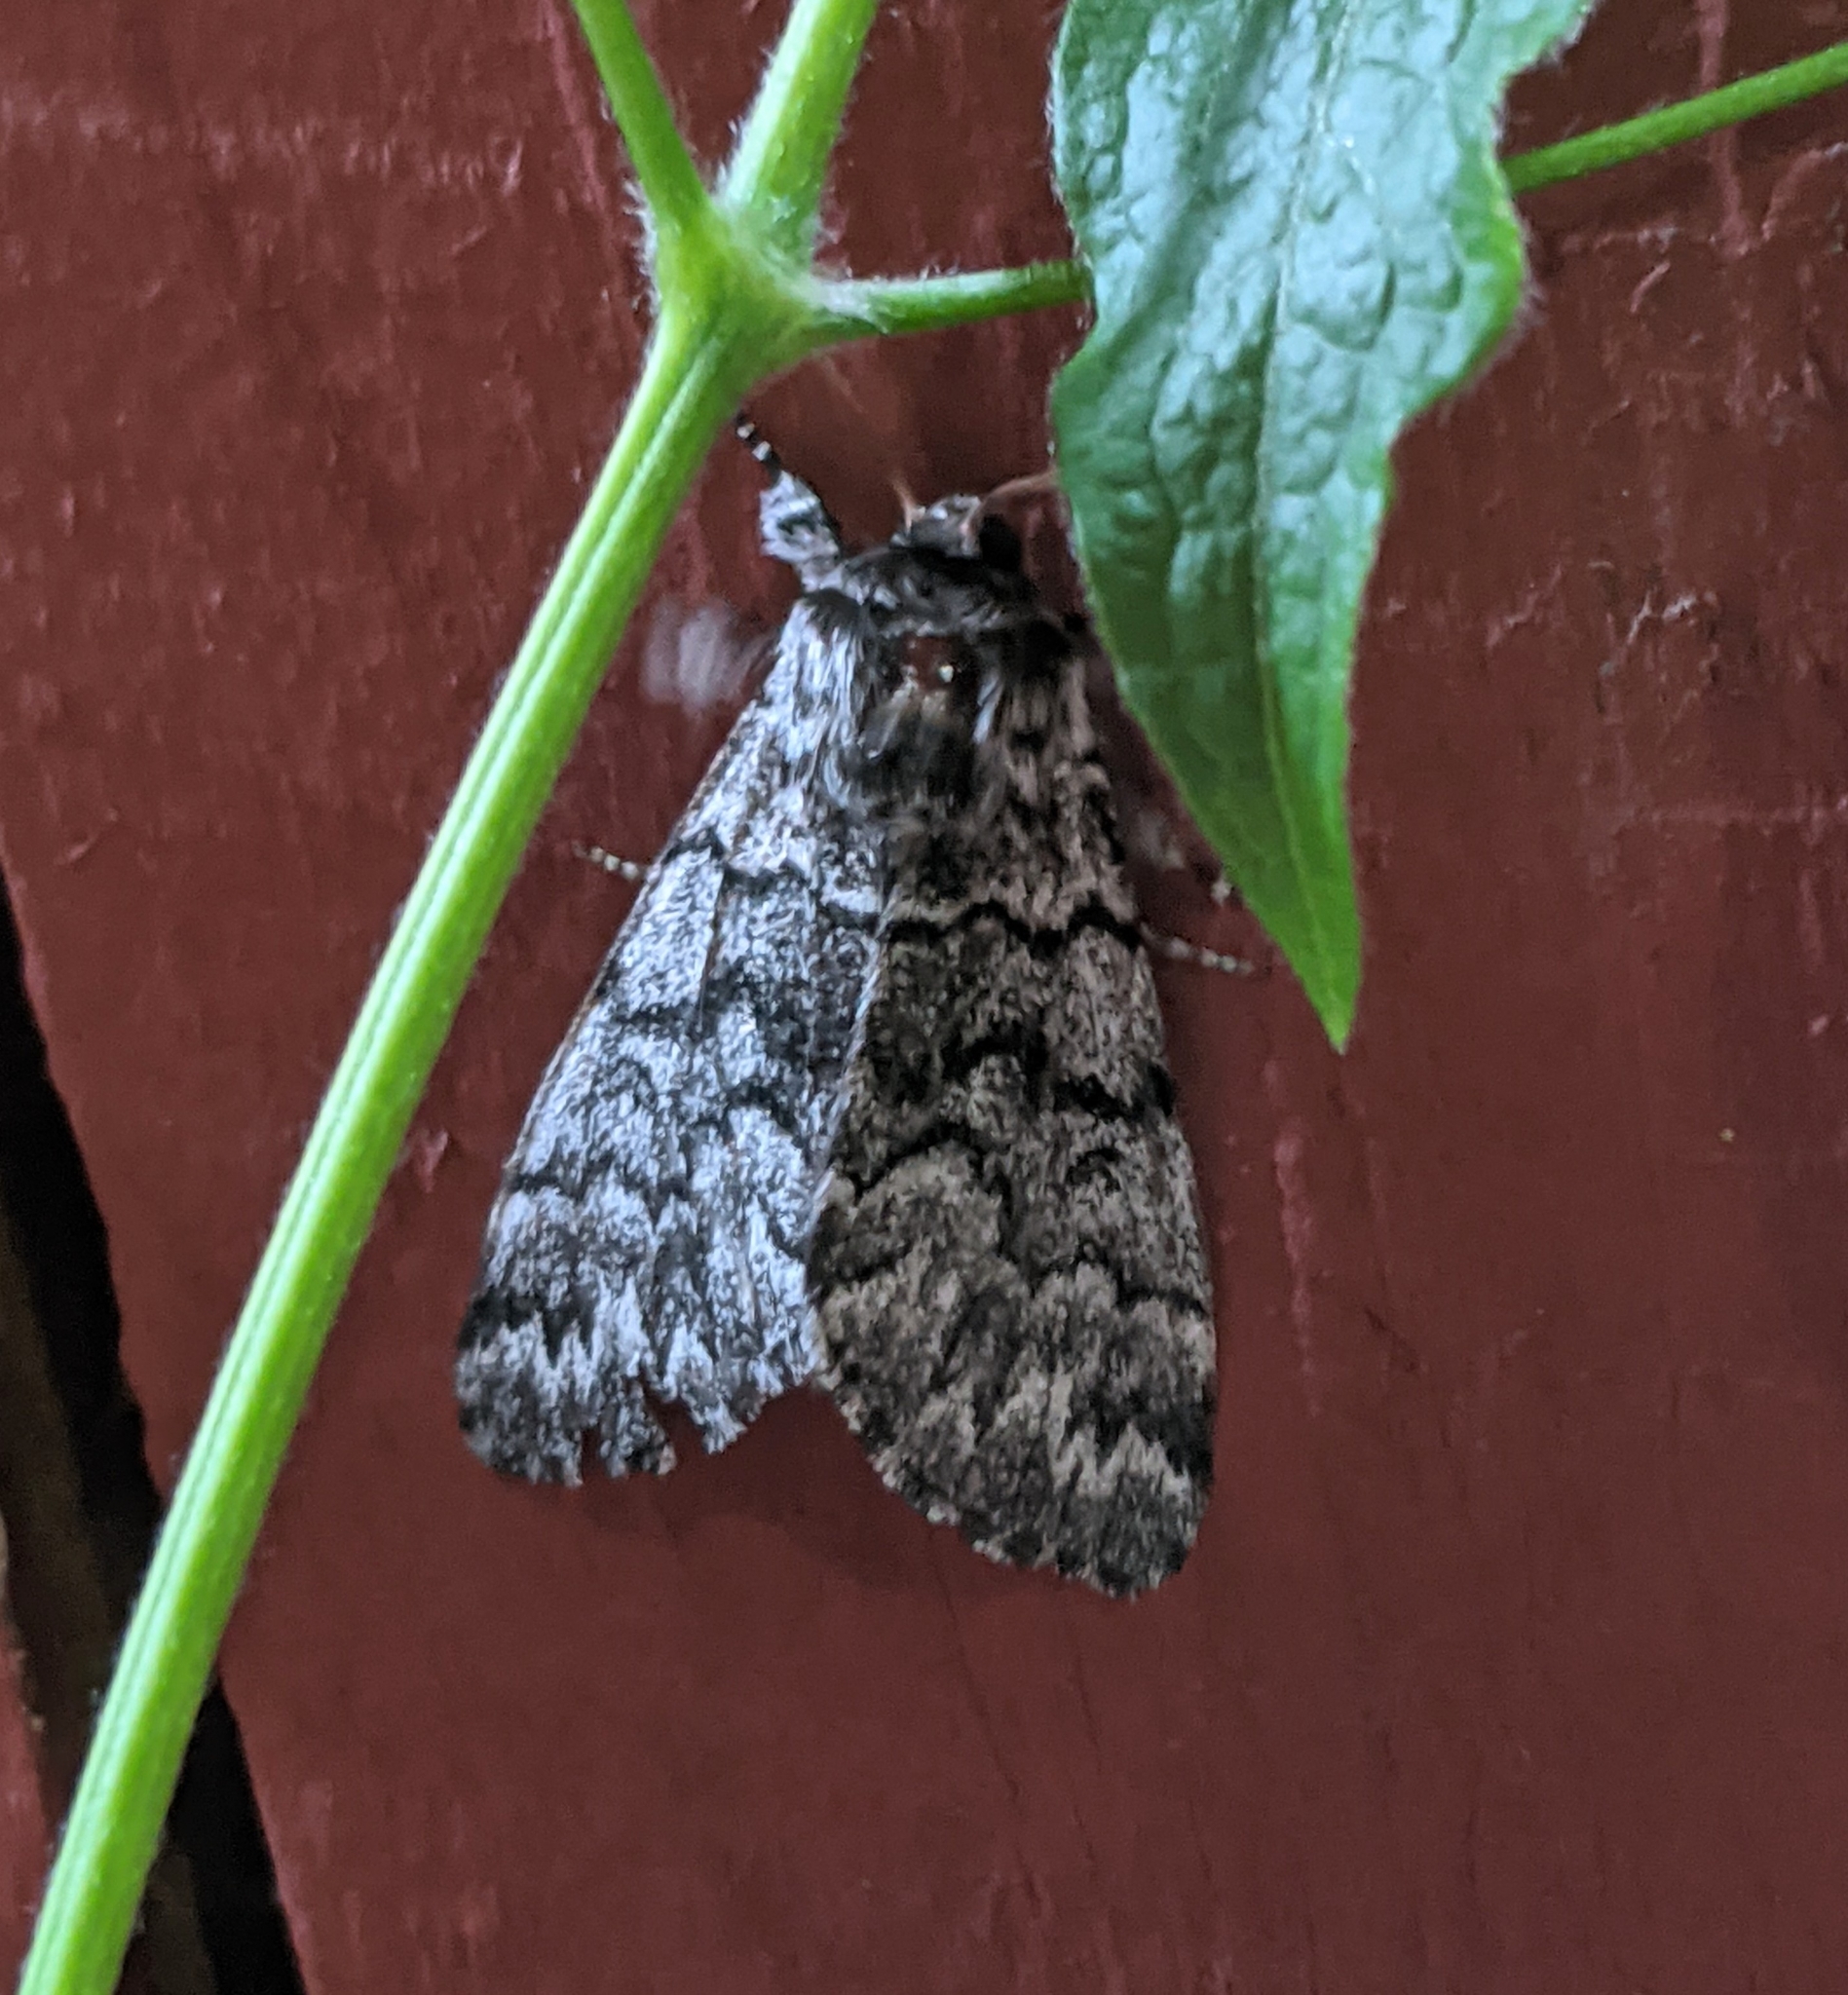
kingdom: Animalia
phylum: Arthropoda
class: Insecta
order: Lepidoptera
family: Noctuidae
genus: Panthea
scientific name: Panthea virginarius
